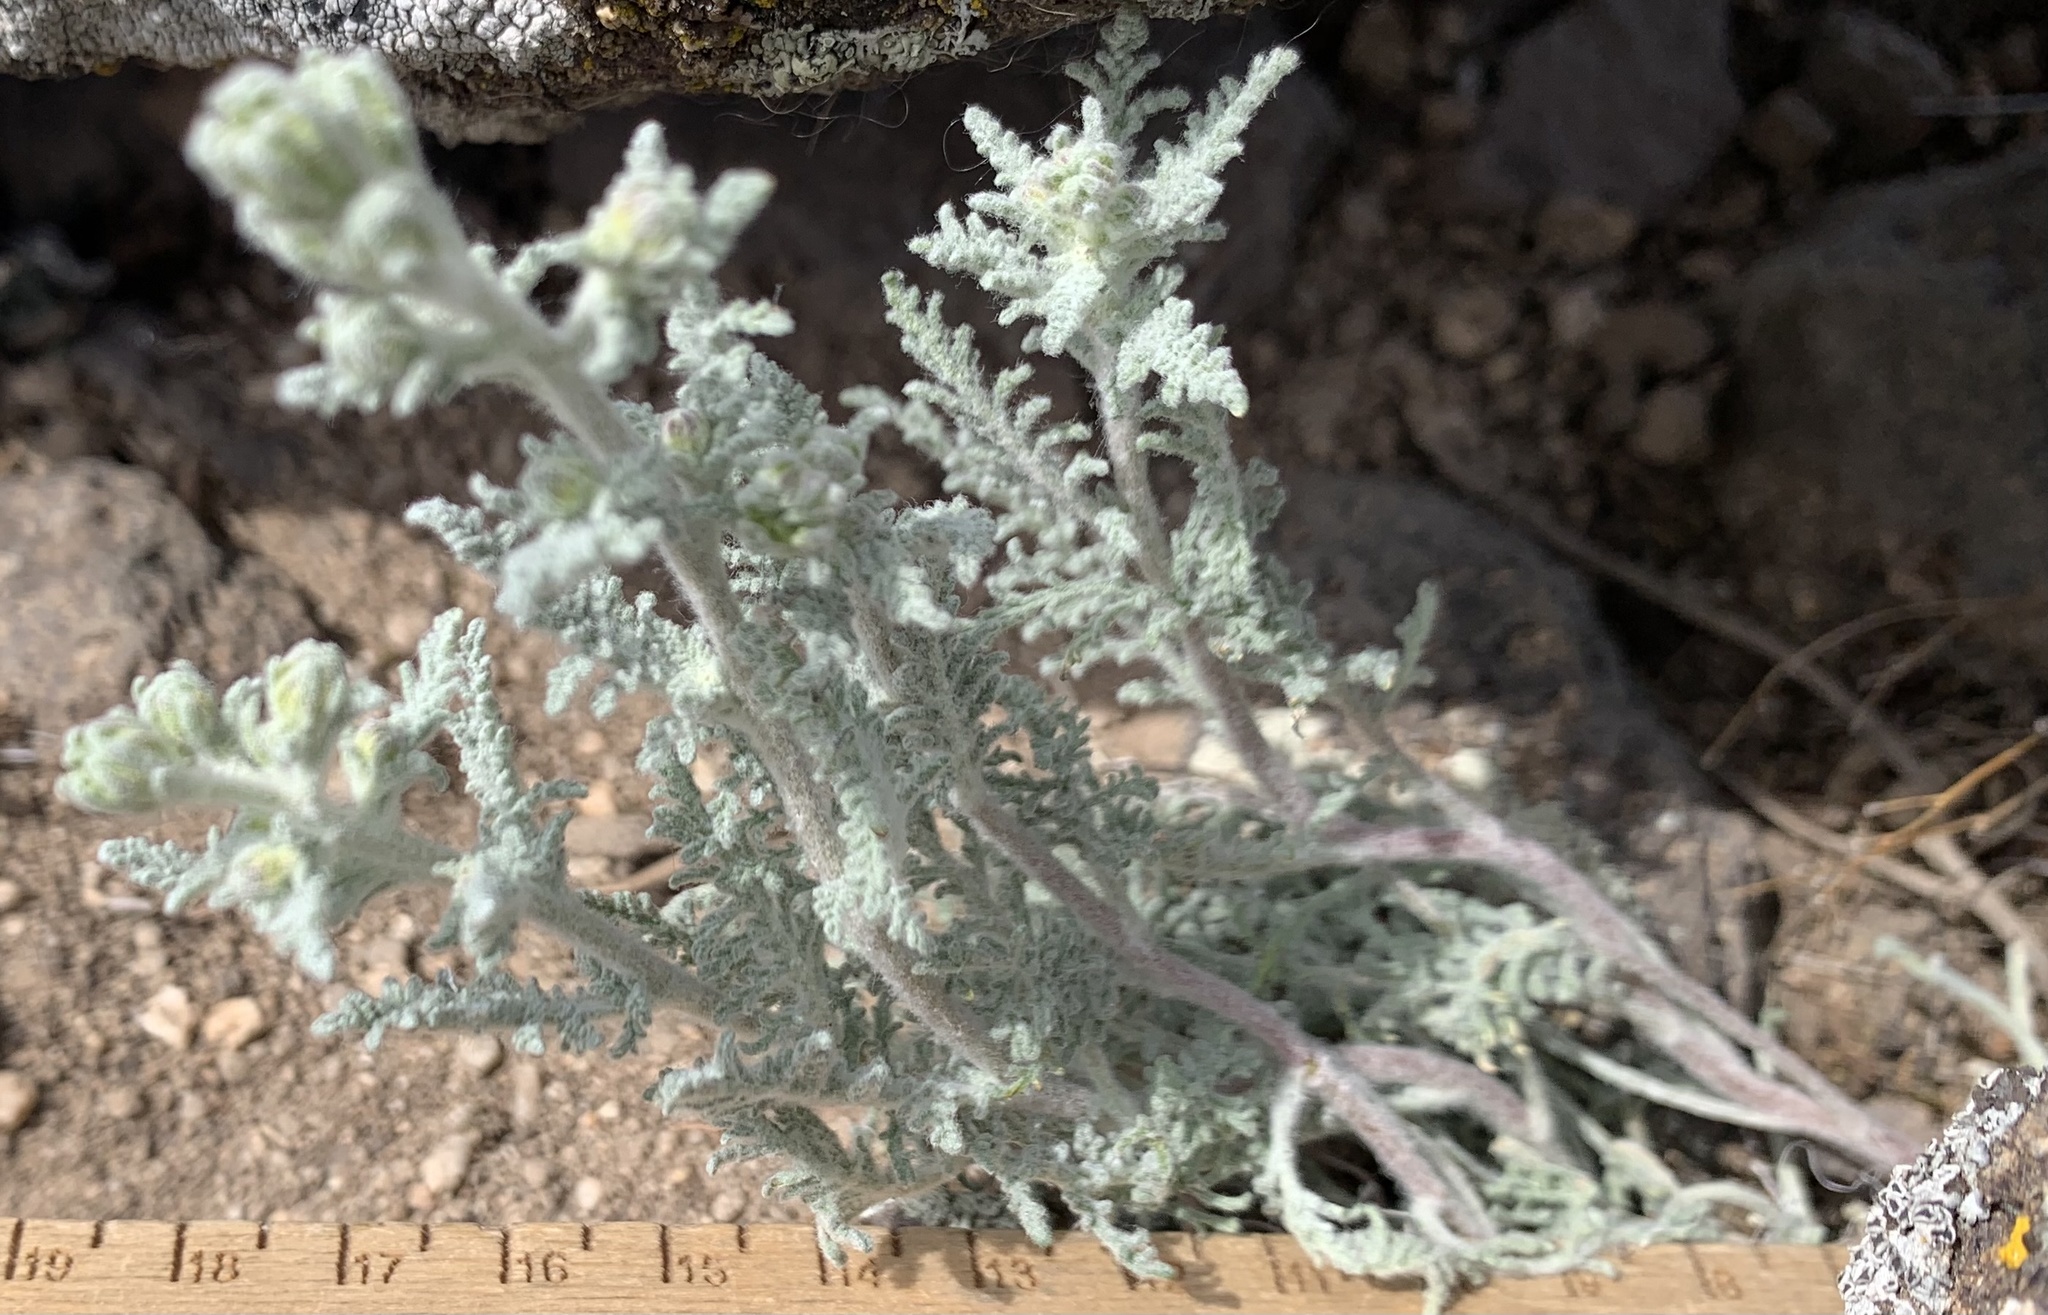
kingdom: Plantae
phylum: Tracheophyta
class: Magnoliopsida
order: Asterales
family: Asteraceae
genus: Chaenactis
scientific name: Chaenactis douglasii
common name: Hoary pincushion
